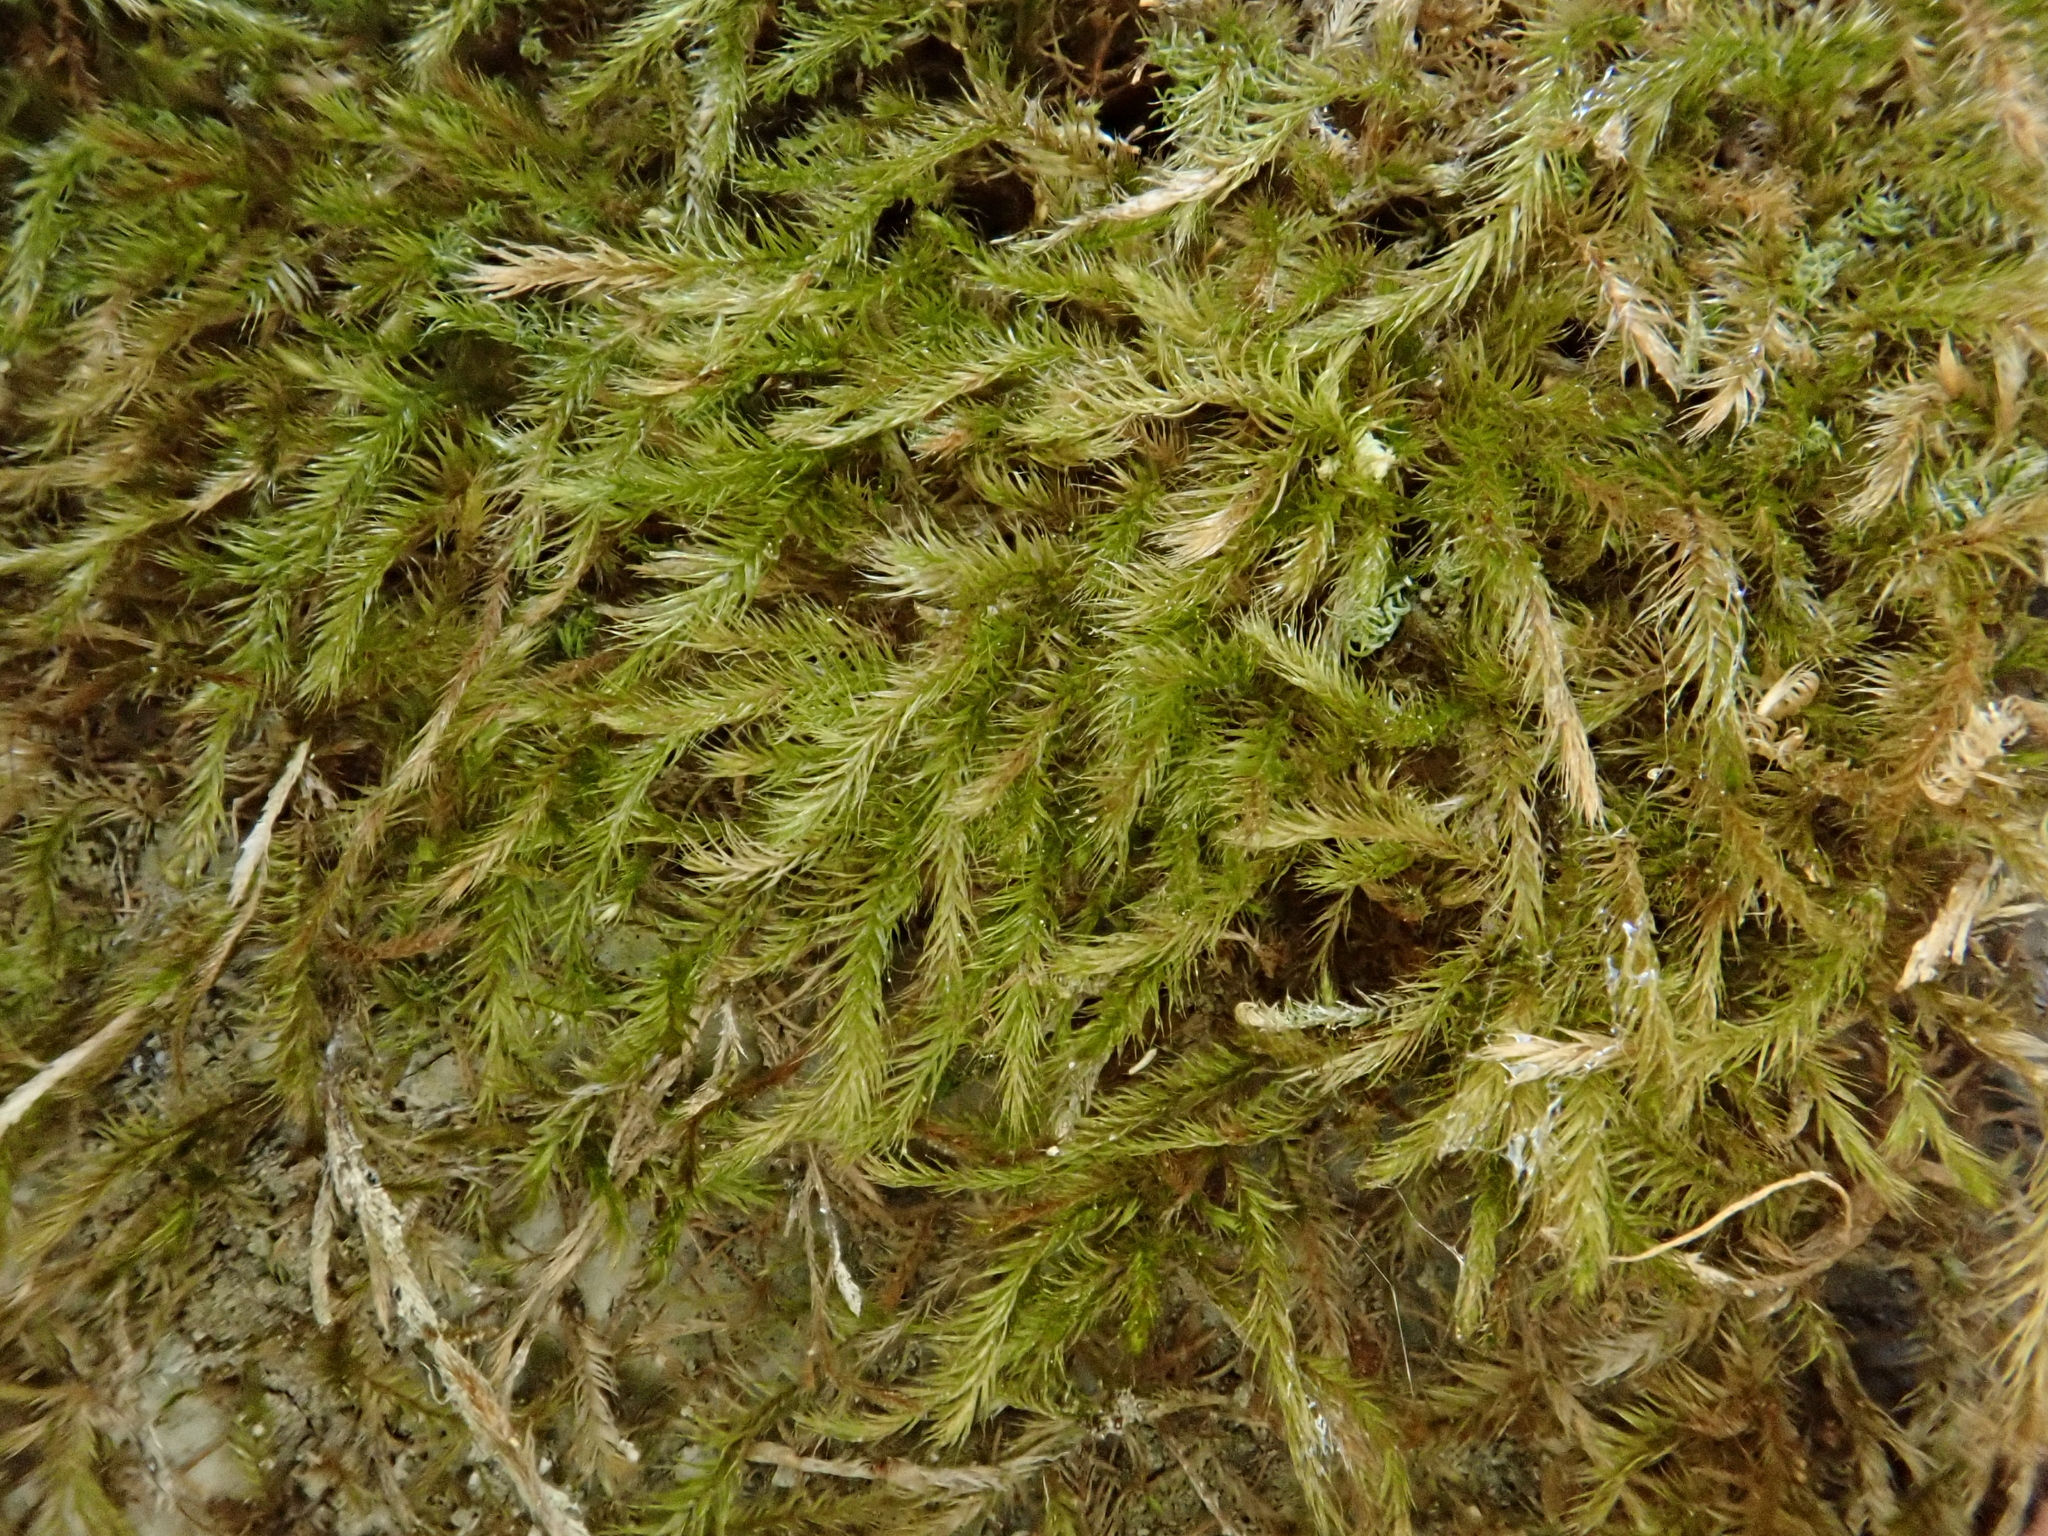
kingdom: Plantae
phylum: Bryophyta
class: Bryopsida
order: Hypnales
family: Plagiotheciaceae
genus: Orthothecium
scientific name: Orthothecium intricatum
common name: Fine-leaved erect-capsule moss
